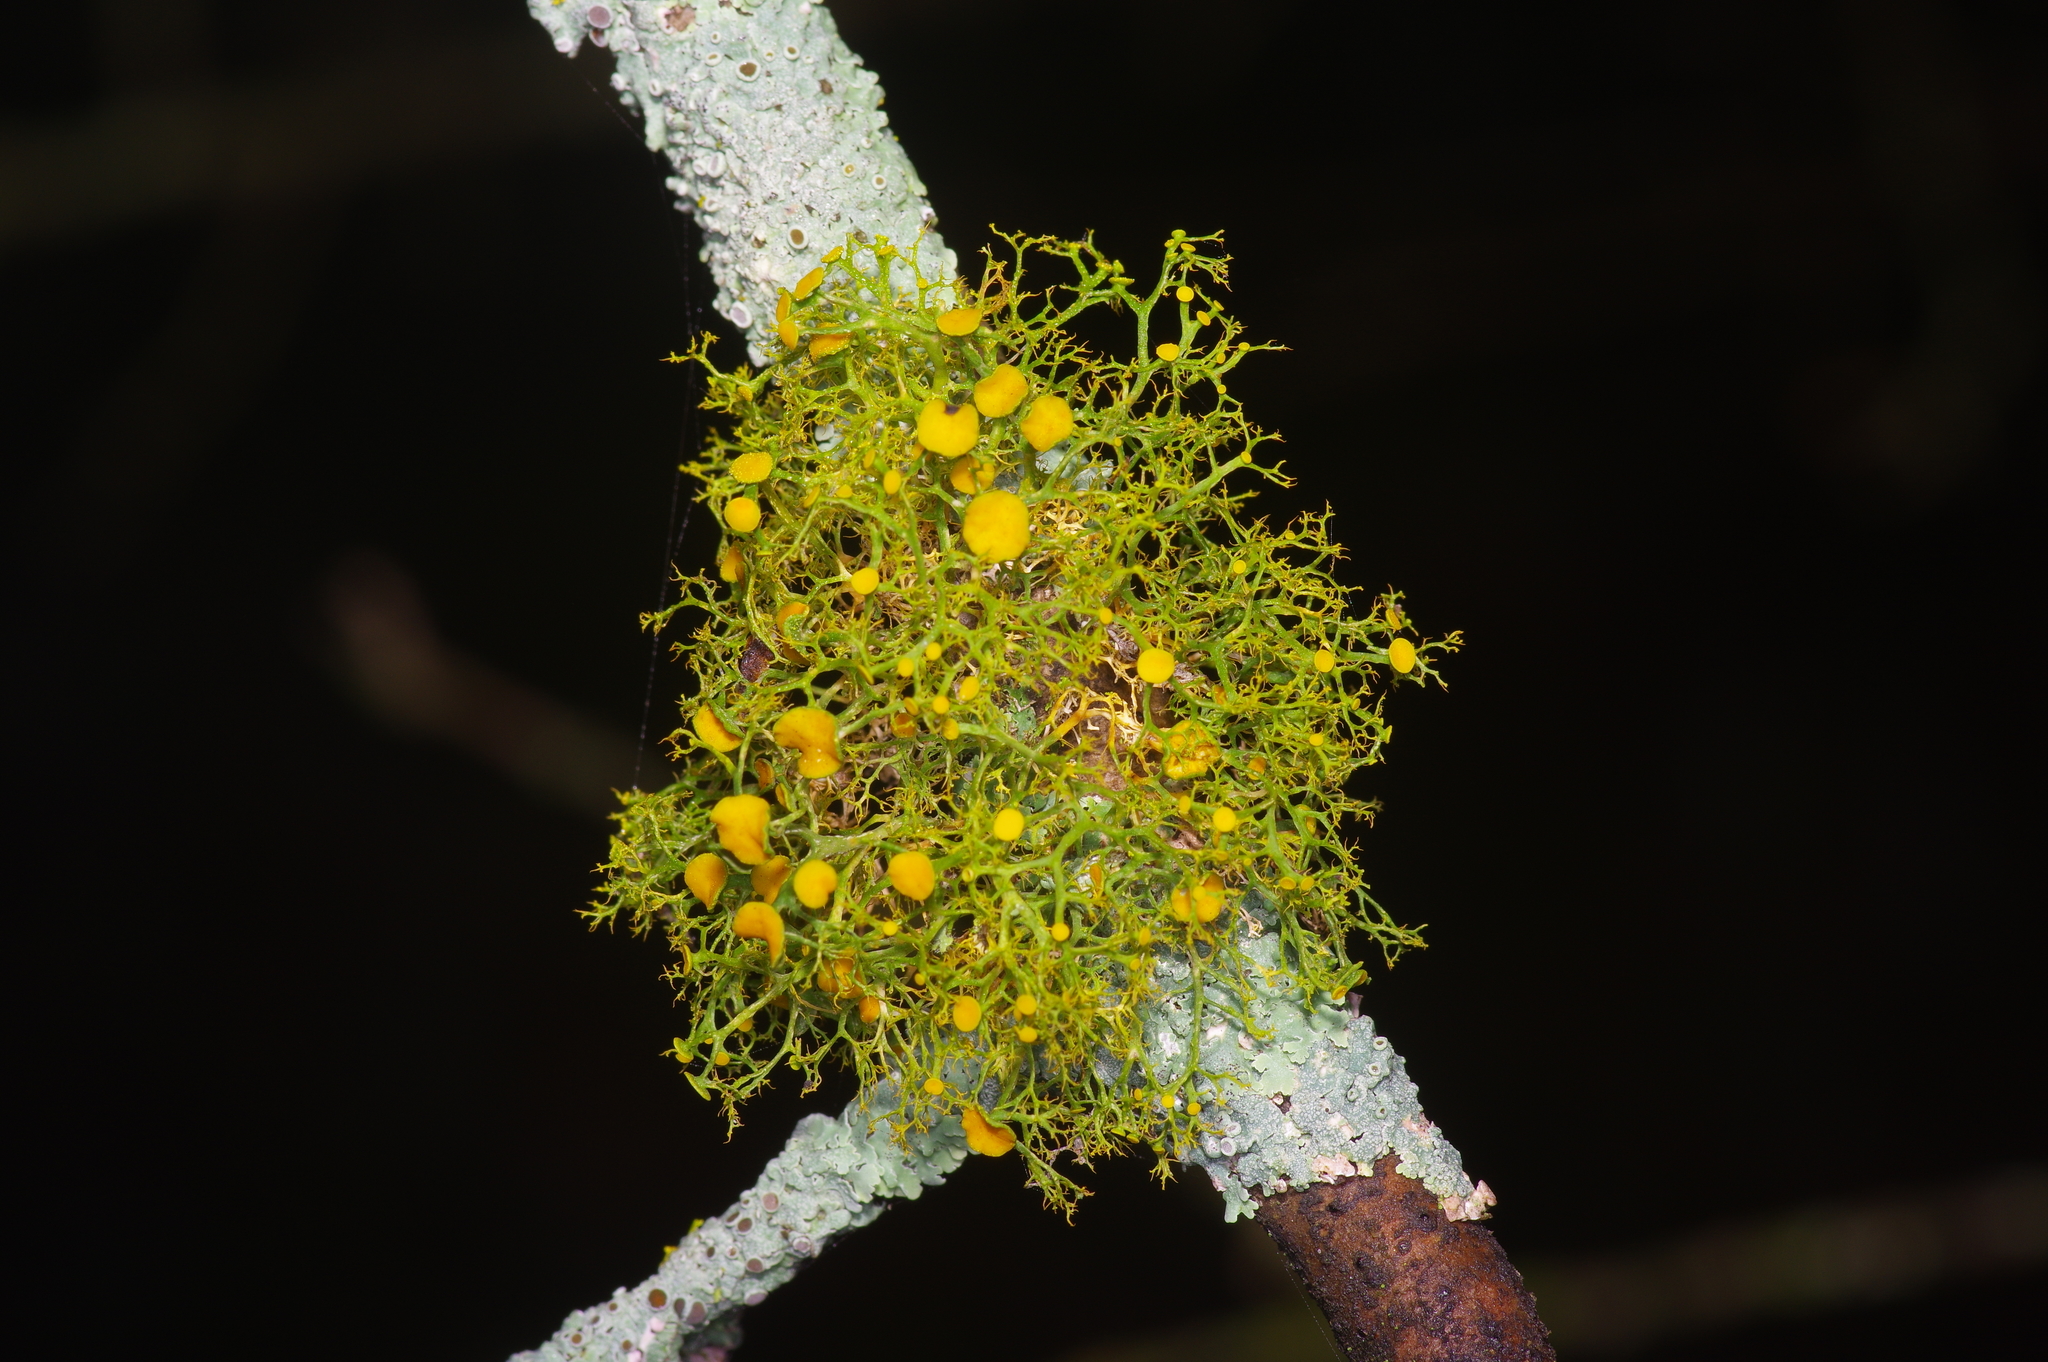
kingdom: Fungi
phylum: Ascomycota
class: Lecanoromycetes
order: Teloschistales
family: Teloschistaceae
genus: Teloschistes
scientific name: Teloschistes exilis
